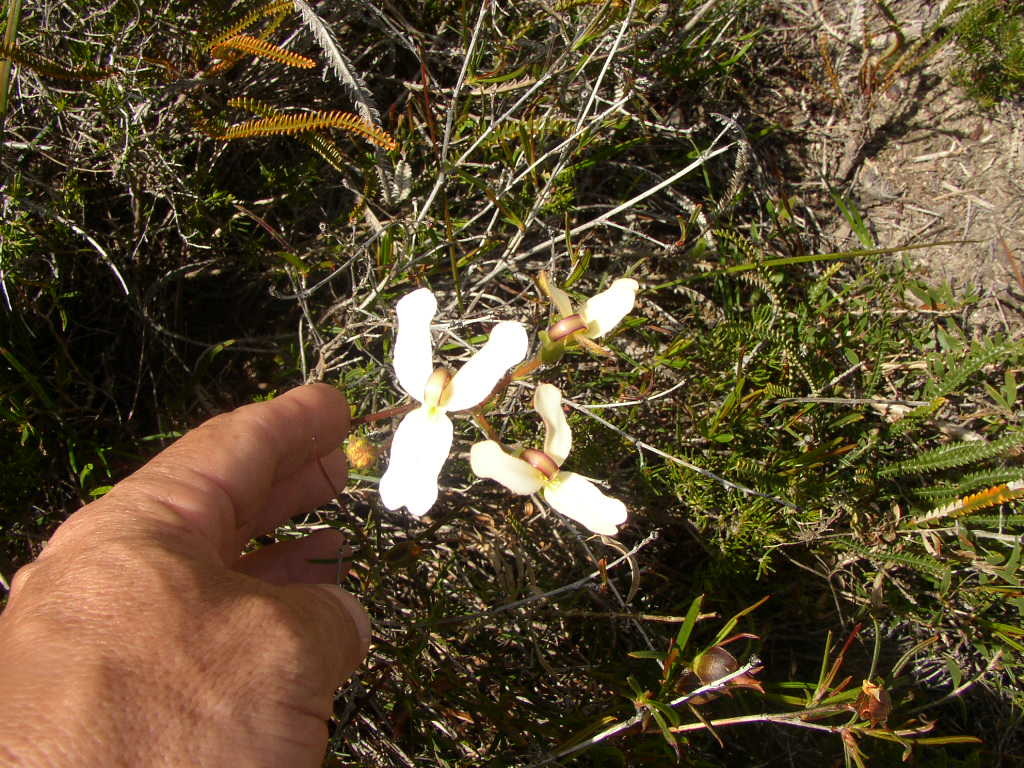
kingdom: Plantae
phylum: Tracheophyta
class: Magnoliopsida
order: Asterales
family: Stylidiaceae
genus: Stylidium
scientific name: Stylidium schoenoides
